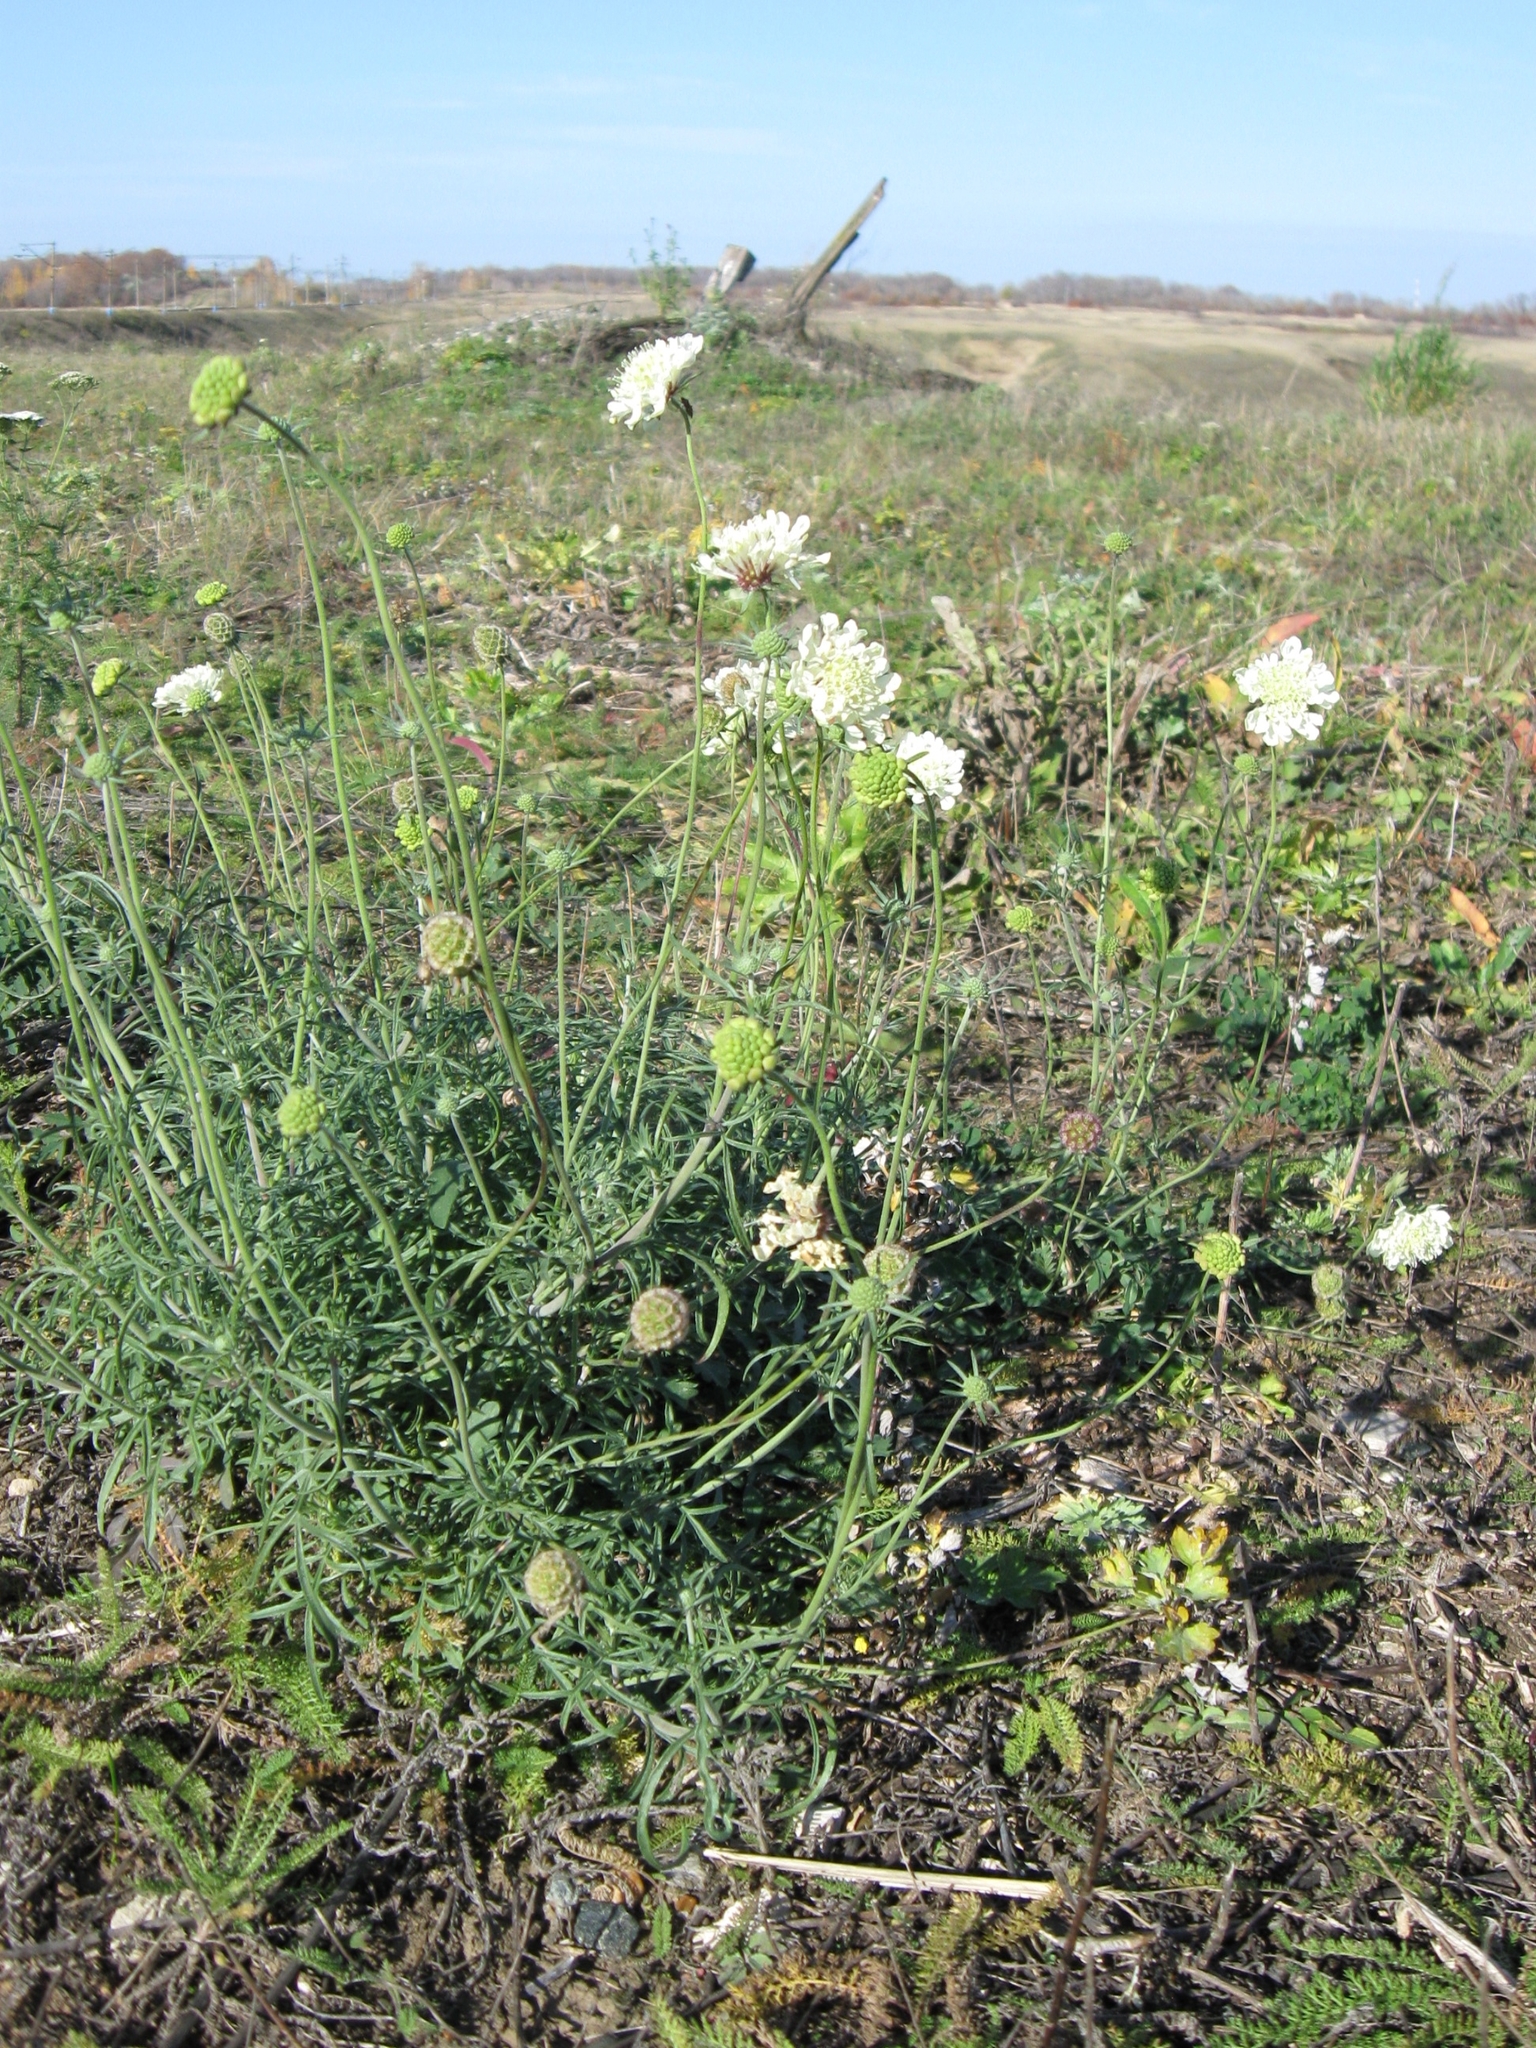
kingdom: Plantae
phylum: Tracheophyta
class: Magnoliopsida
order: Dipsacales
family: Caprifoliaceae
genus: Scabiosa
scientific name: Scabiosa ochroleuca
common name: Cream pincushions
